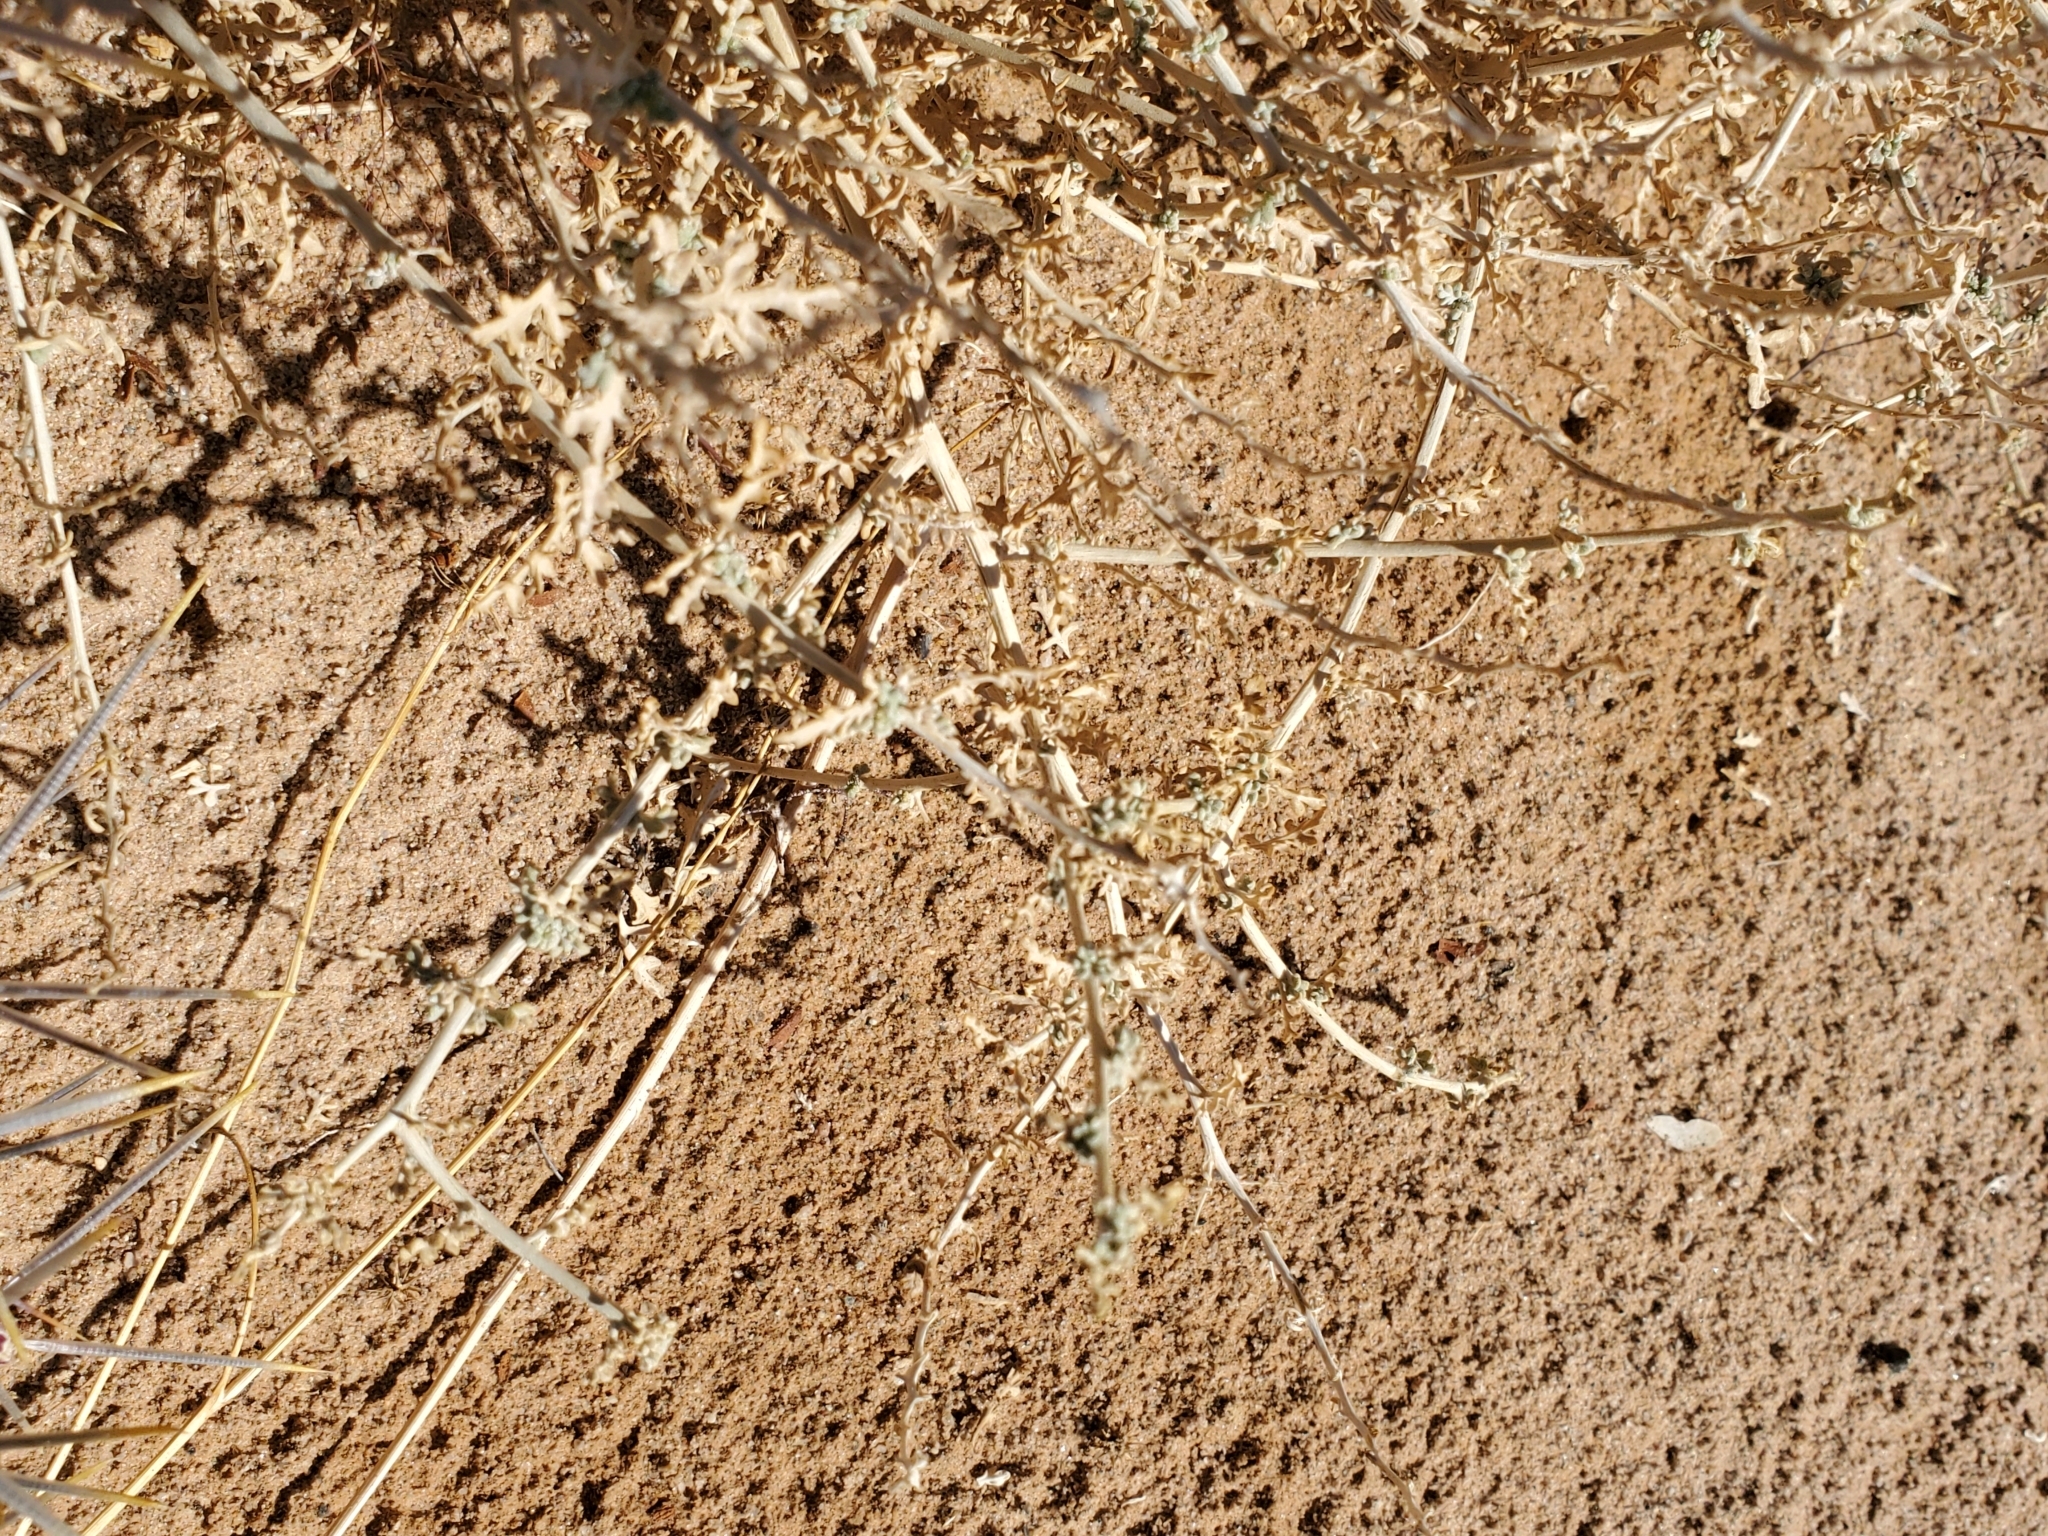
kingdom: Plantae
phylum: Tracheophyta
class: Magnoliopsida
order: Asterales
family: Asteraceae
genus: Ambrosia
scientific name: Ambrosia dumosa
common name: Bur-sage
